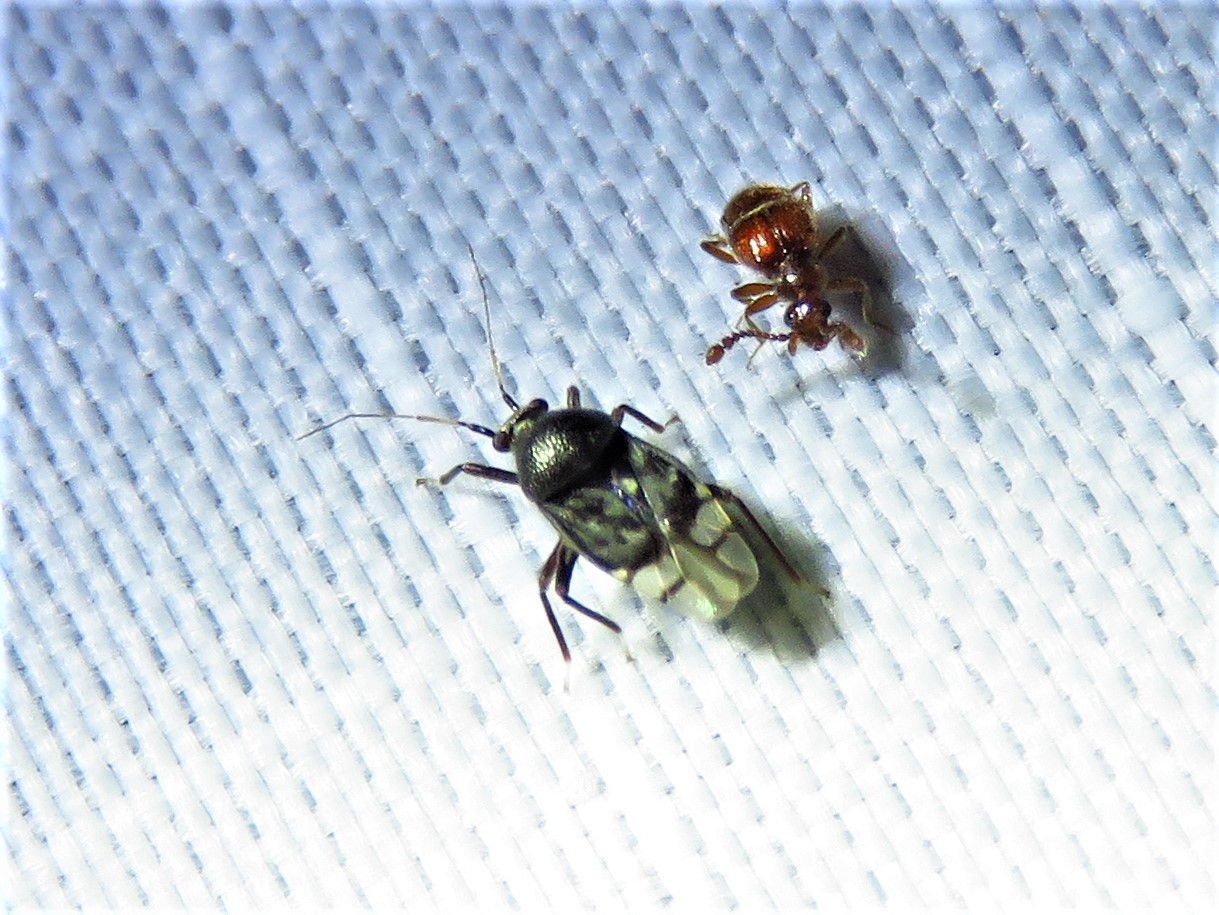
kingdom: Animalia
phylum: Arthropoda
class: Insecta
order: Hemiptera
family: Miridae
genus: Pycnoderes
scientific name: Pycnoderes atratus
